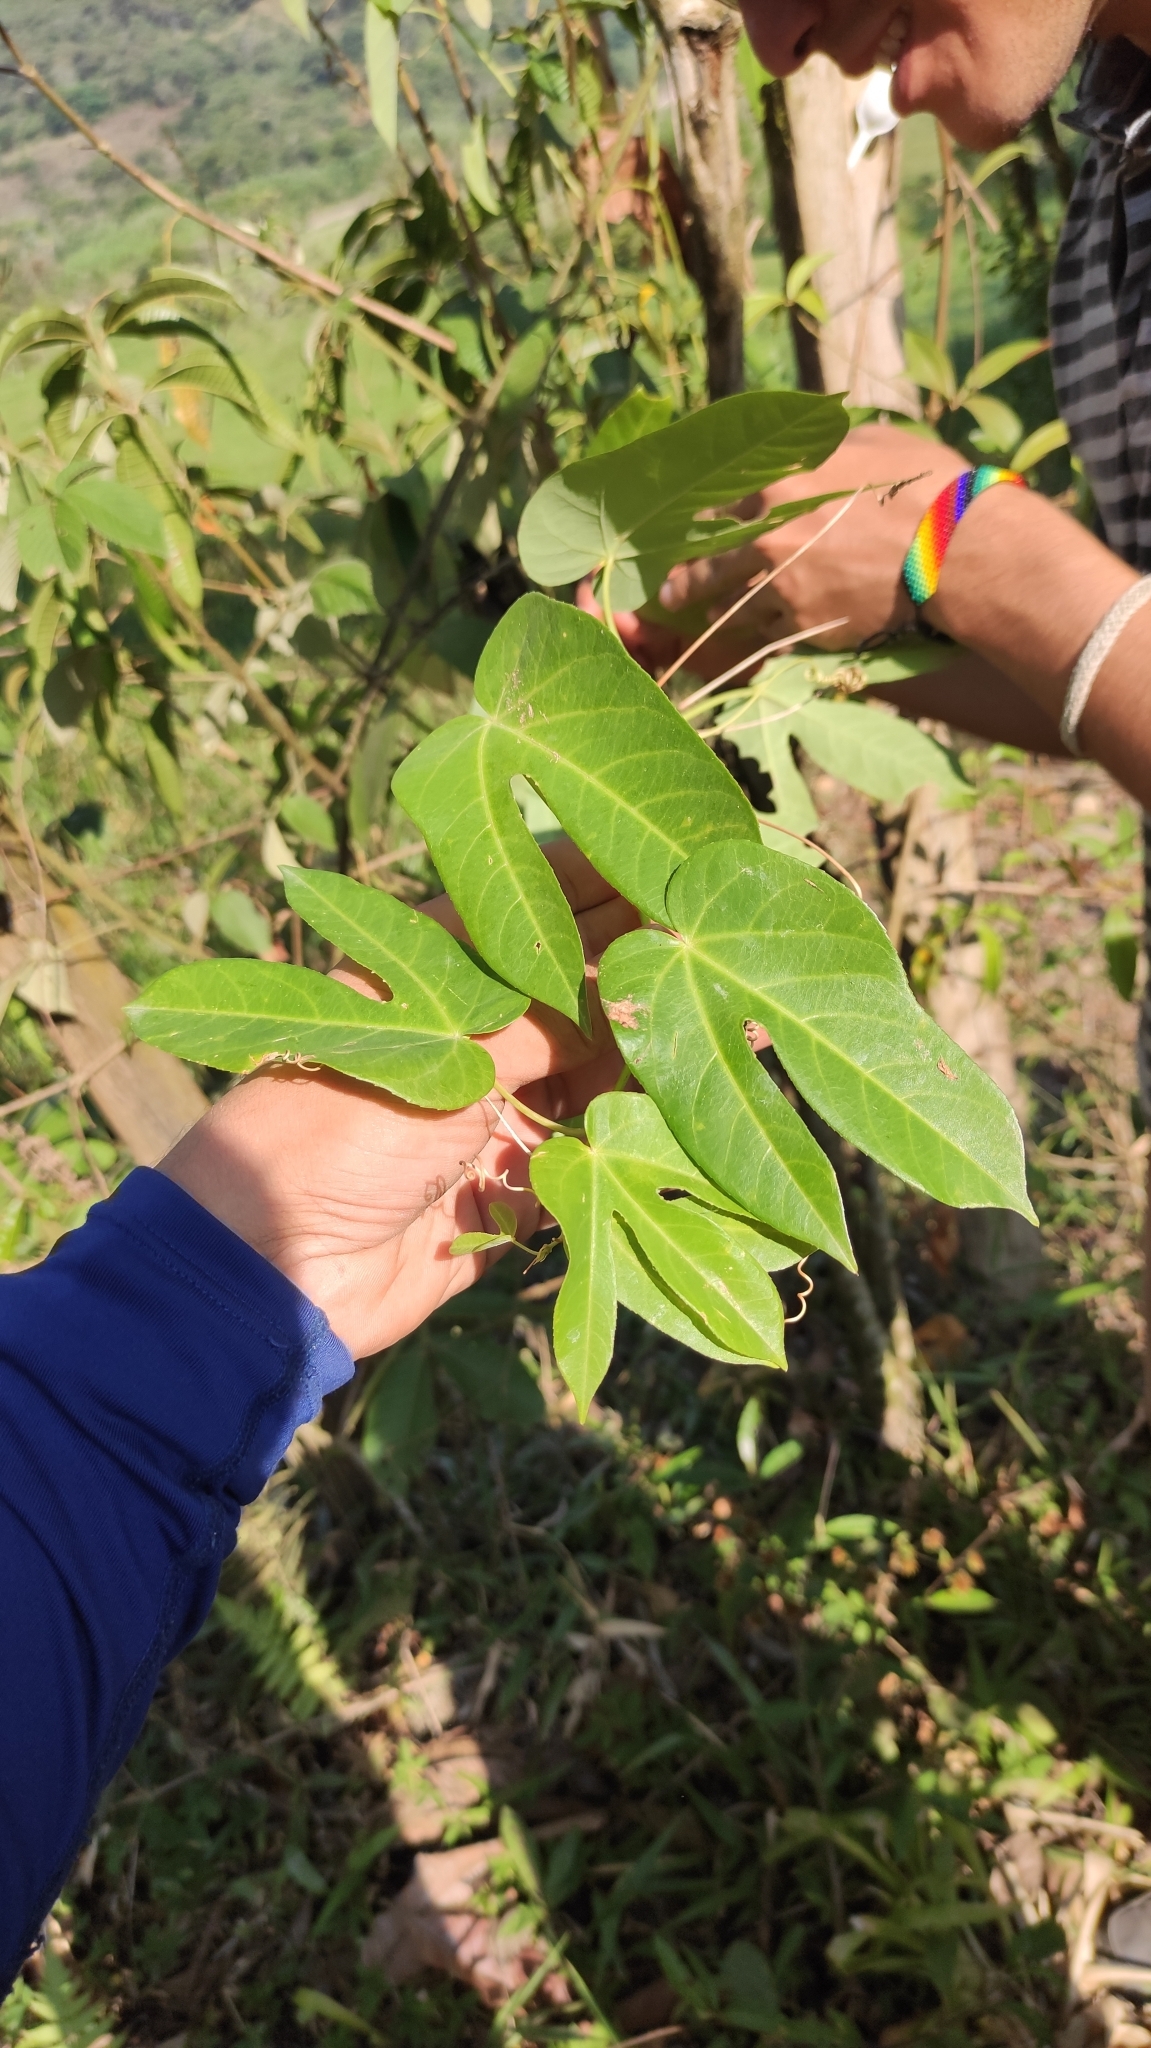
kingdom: Plantae
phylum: Tracheophyta
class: Magnoliopsida
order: Malpighiales
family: Passifloraceae
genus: Passiflora
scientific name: Passiflora seemannii
